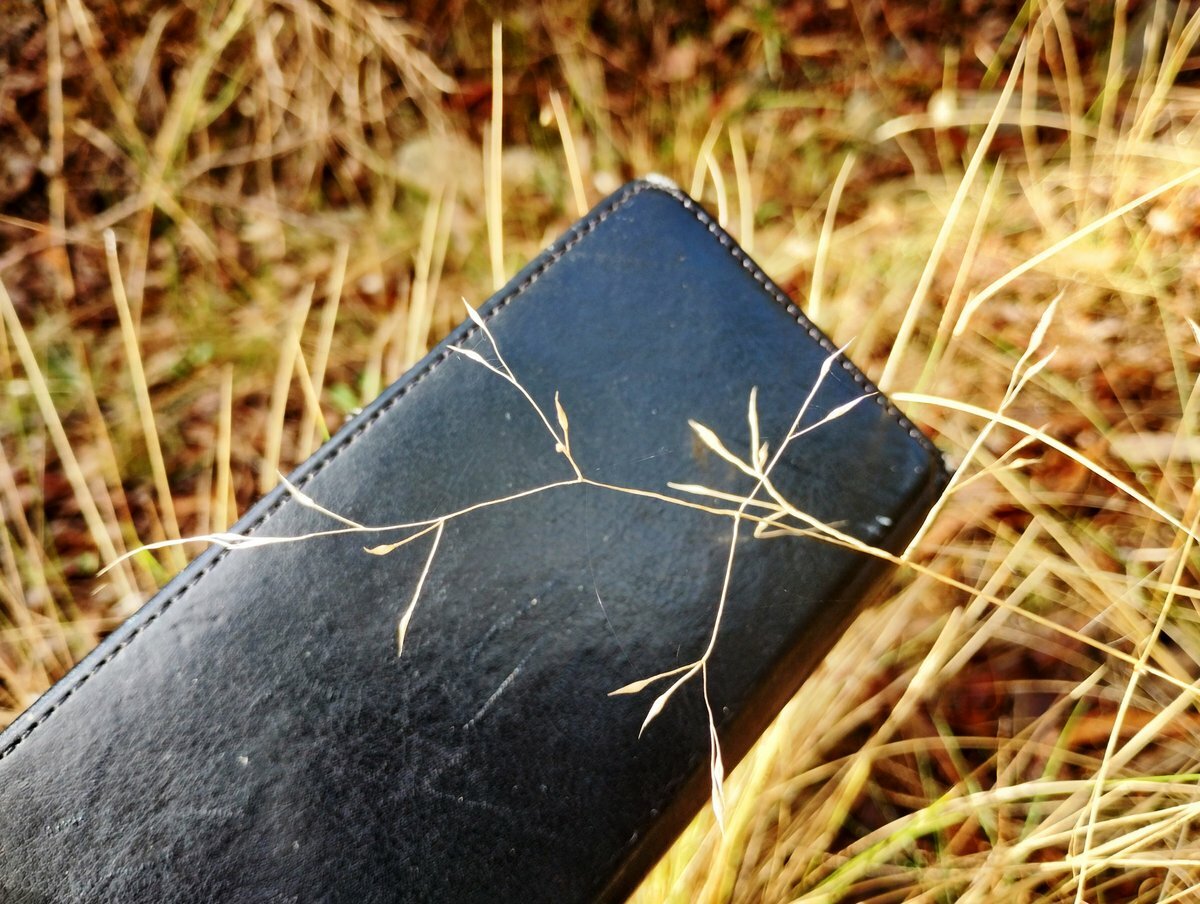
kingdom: Plantae
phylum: Tracheophyta
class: Liliopsida
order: Poales
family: Poaceae
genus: Nassella
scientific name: Nassella trichotoma
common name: Serrated tussock grass
